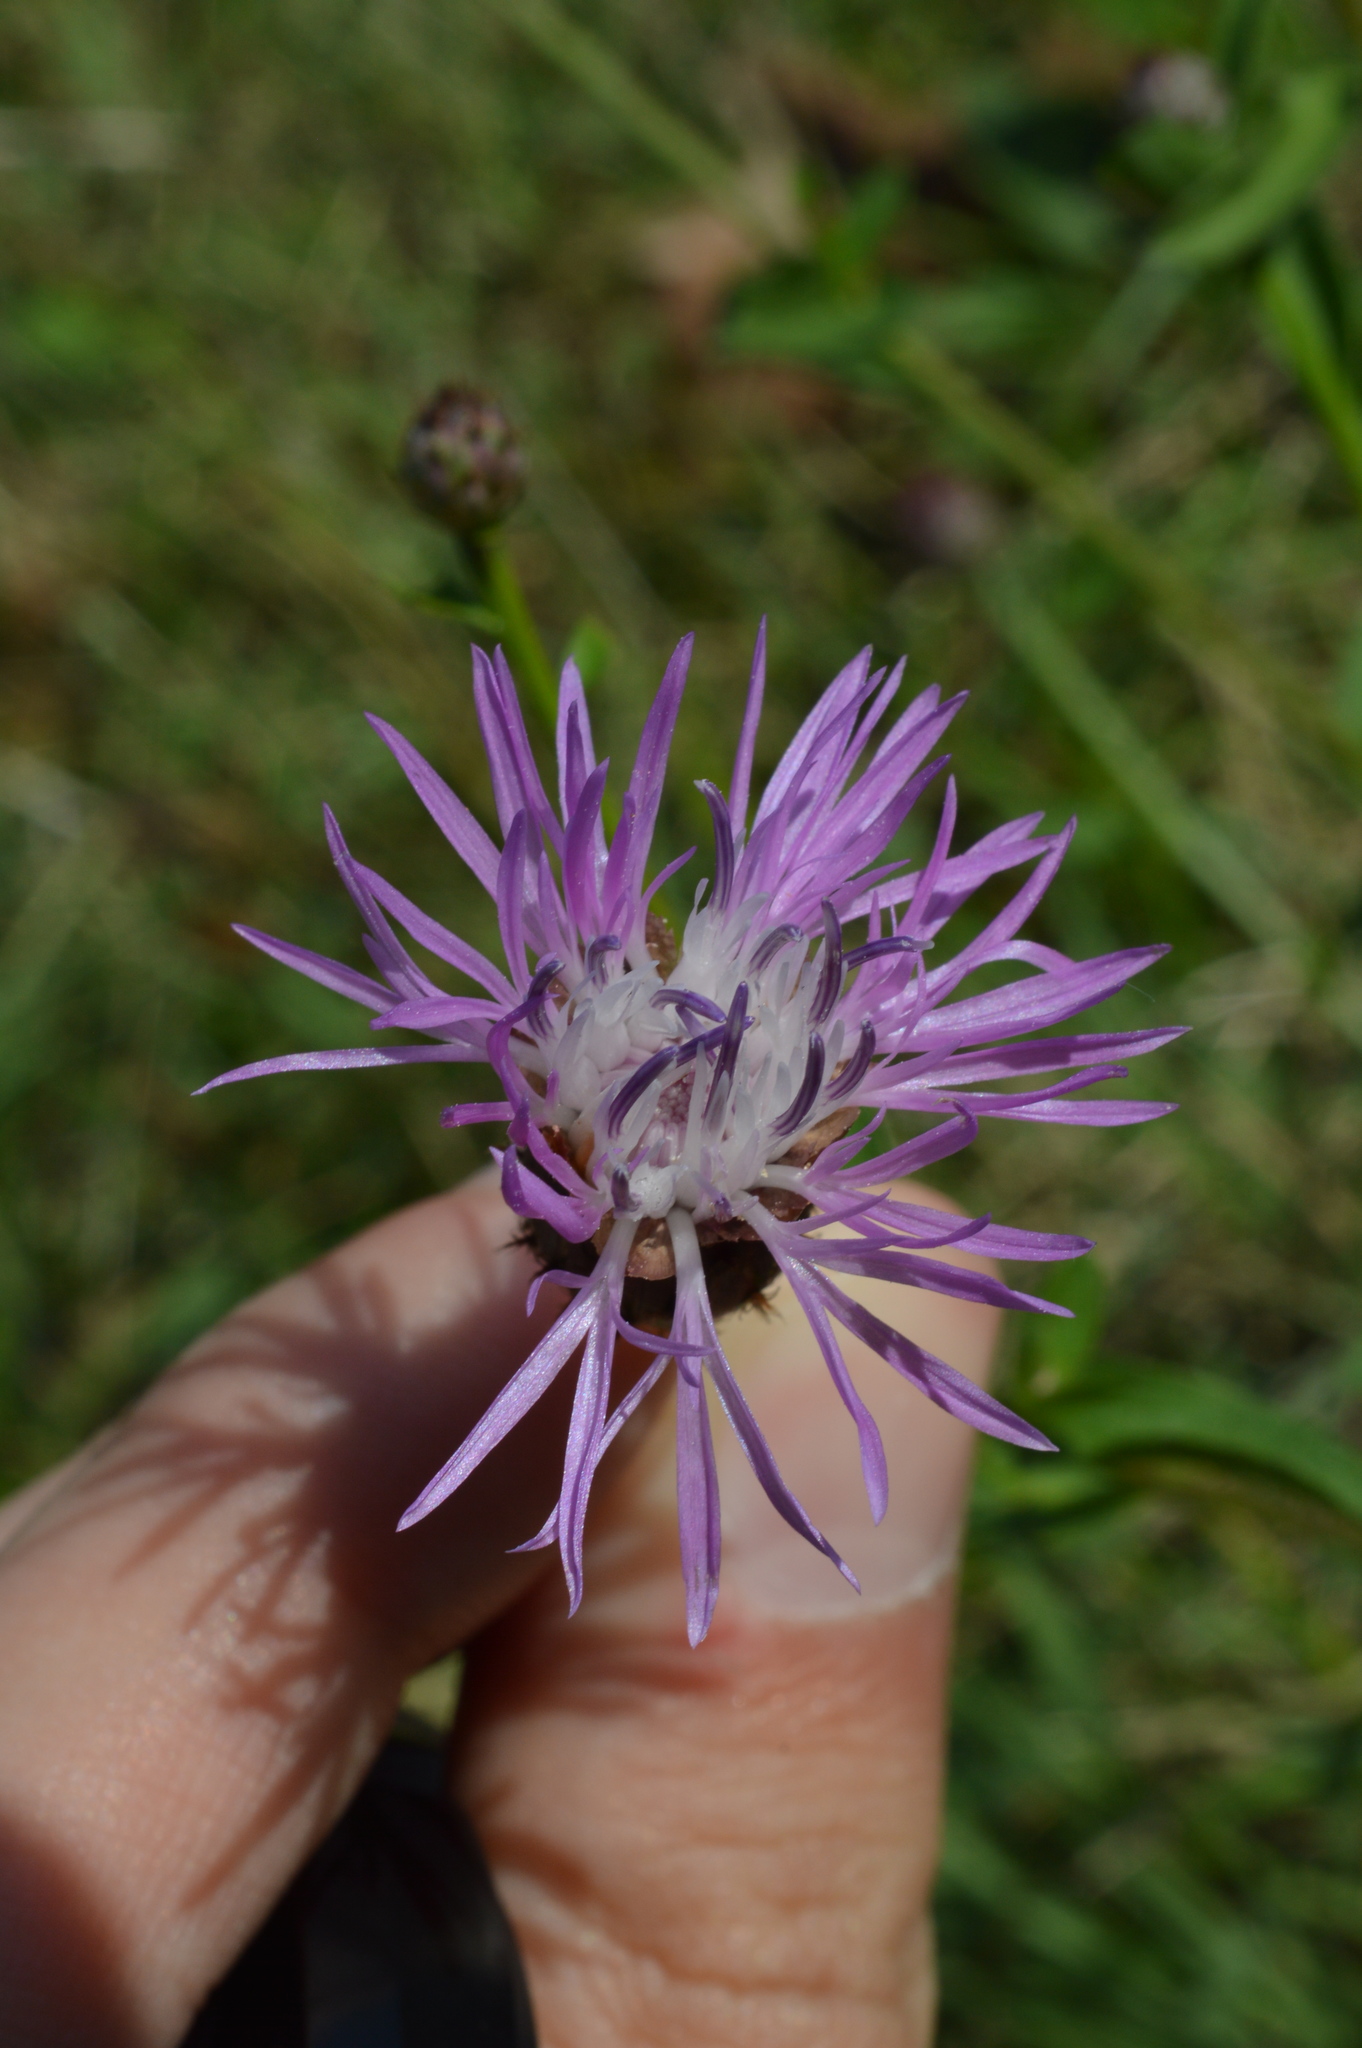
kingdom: Plantae
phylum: Tracheophyta
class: Magnoliopsida
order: Asterales
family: Asteraceae
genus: Centaurea
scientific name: Centaurea nigrescens
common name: Tyrol knapweed
